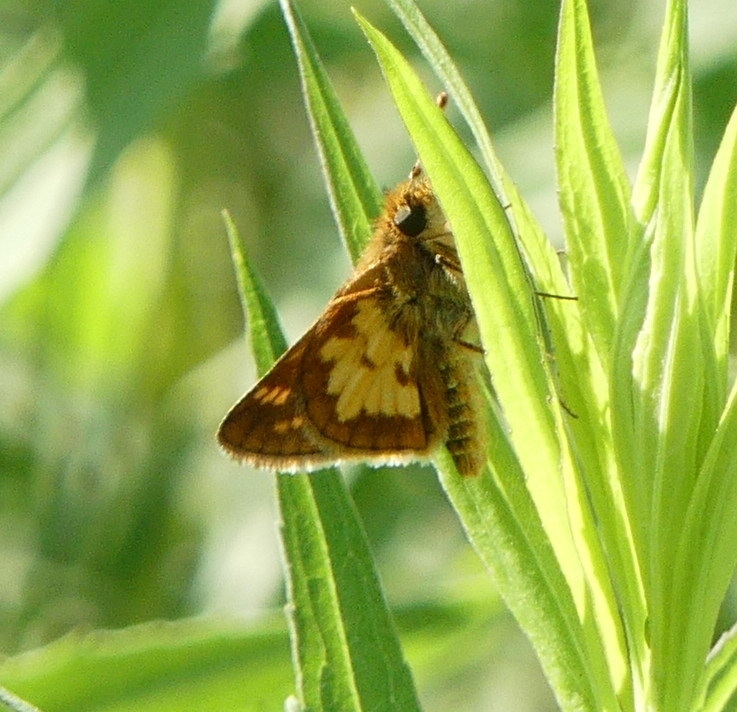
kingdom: Animalia
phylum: Arthropoda
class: Insecta
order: Lepidoptera
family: Hesperiidae
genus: Polites
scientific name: Polites coras
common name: Peck's skipper
